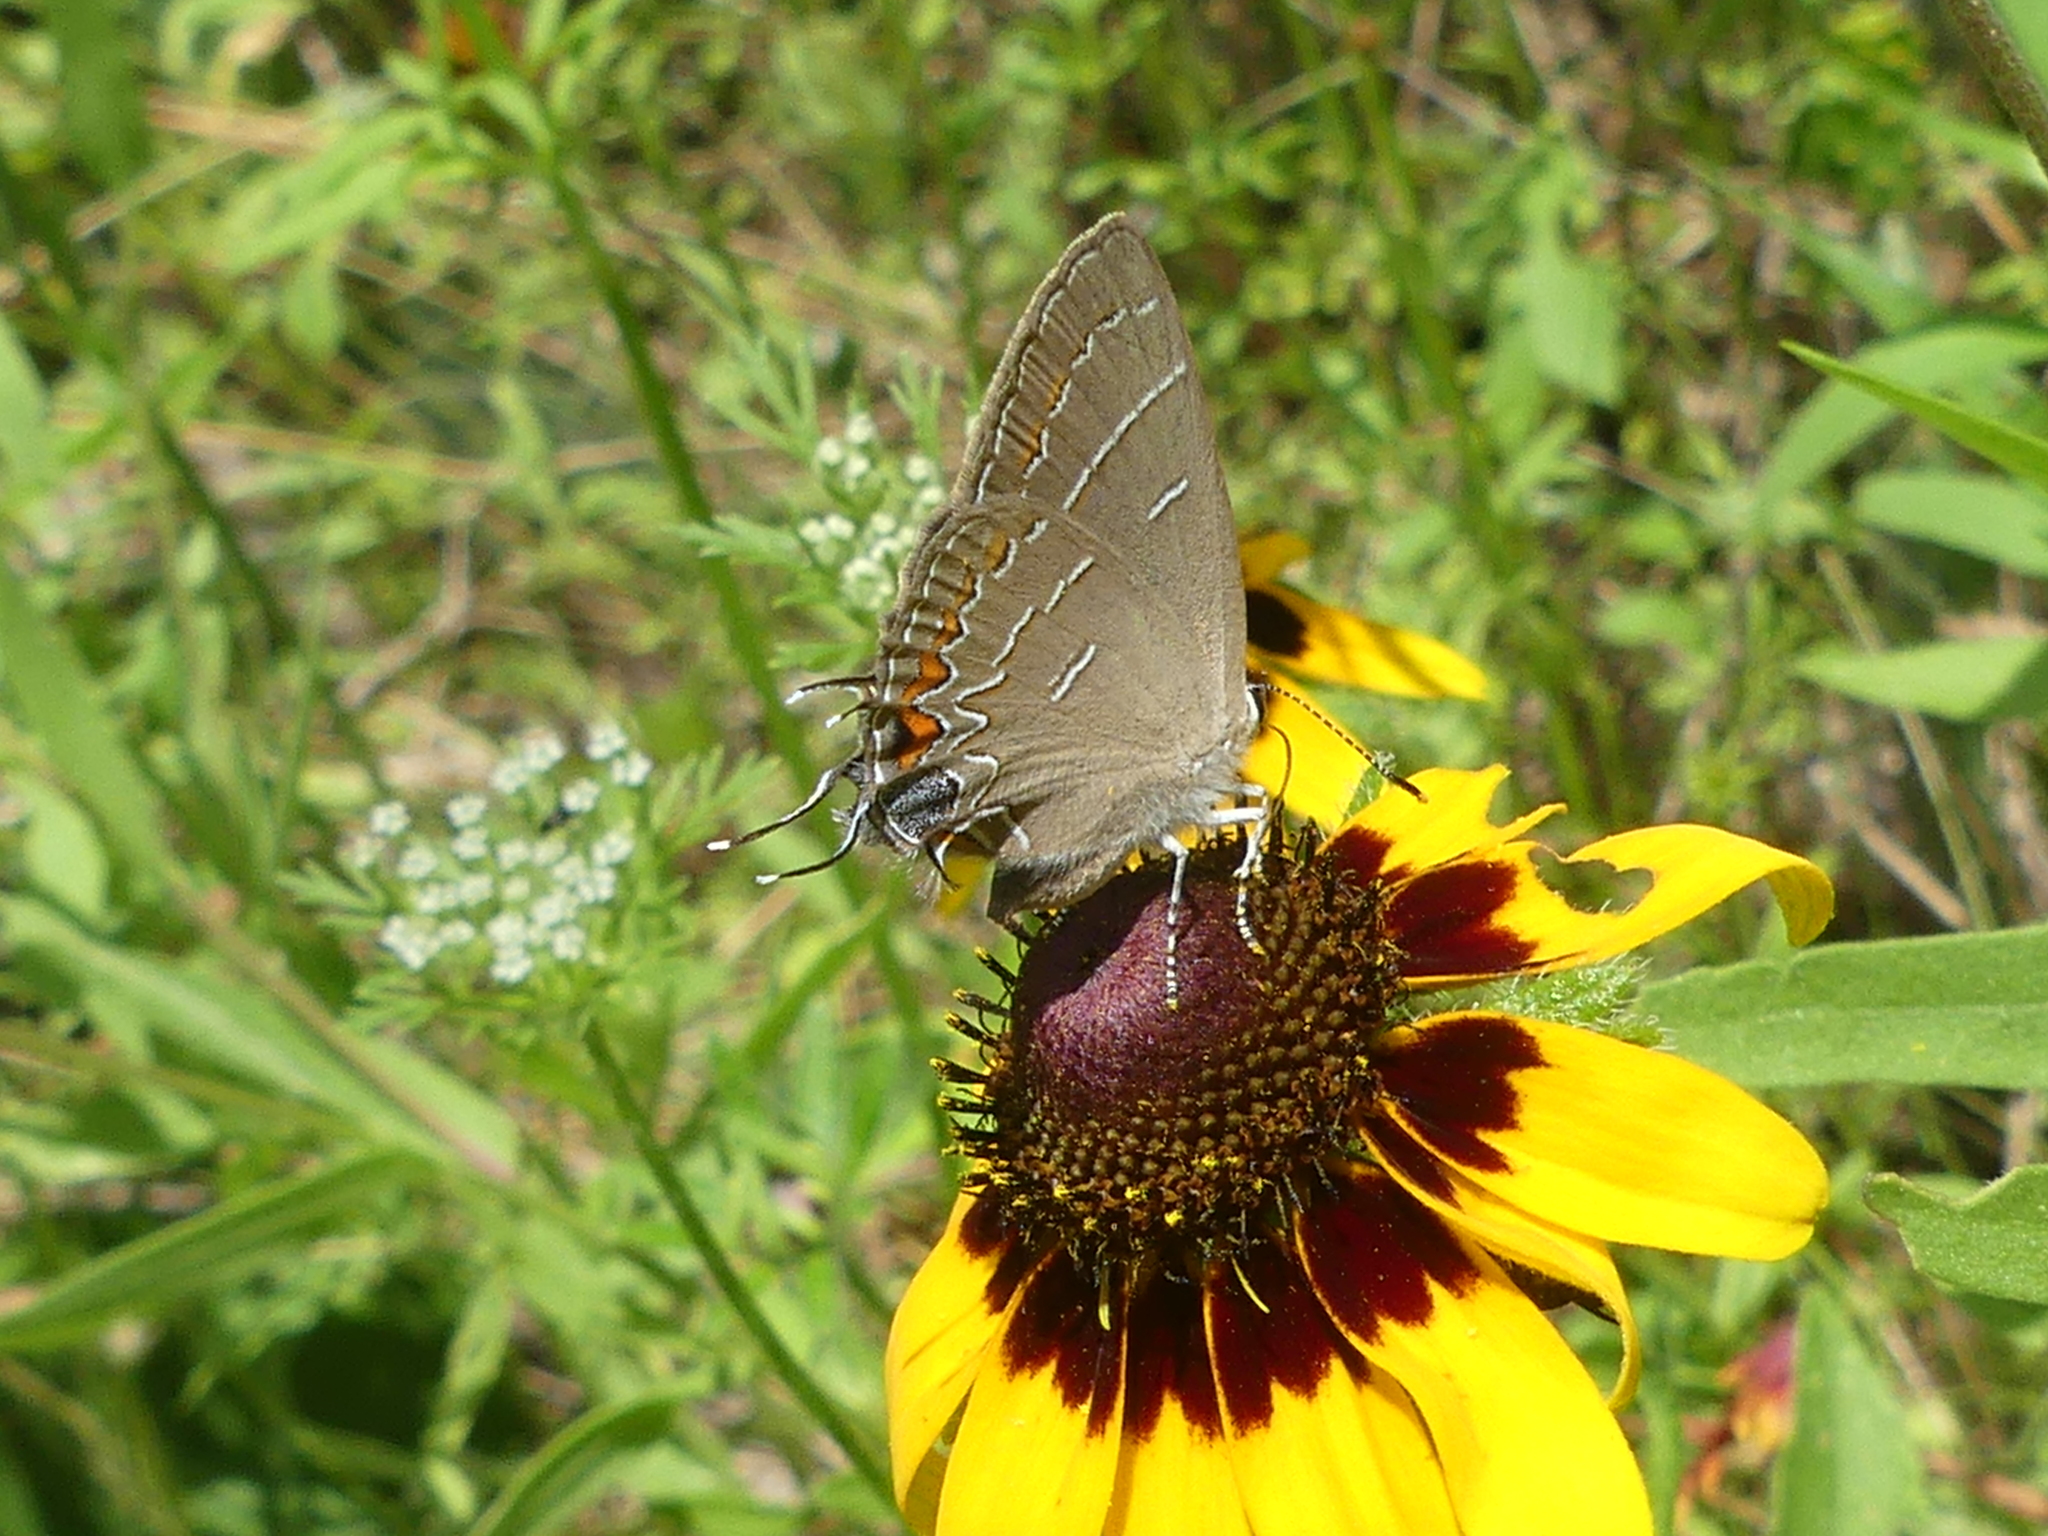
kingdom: Animalia
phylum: Arthropoda
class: Insecta
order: Lepidoptera
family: Lycaenidae
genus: Phaeostrymon
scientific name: Phaeostrymon alcestis
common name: Soapberry hairstreak
